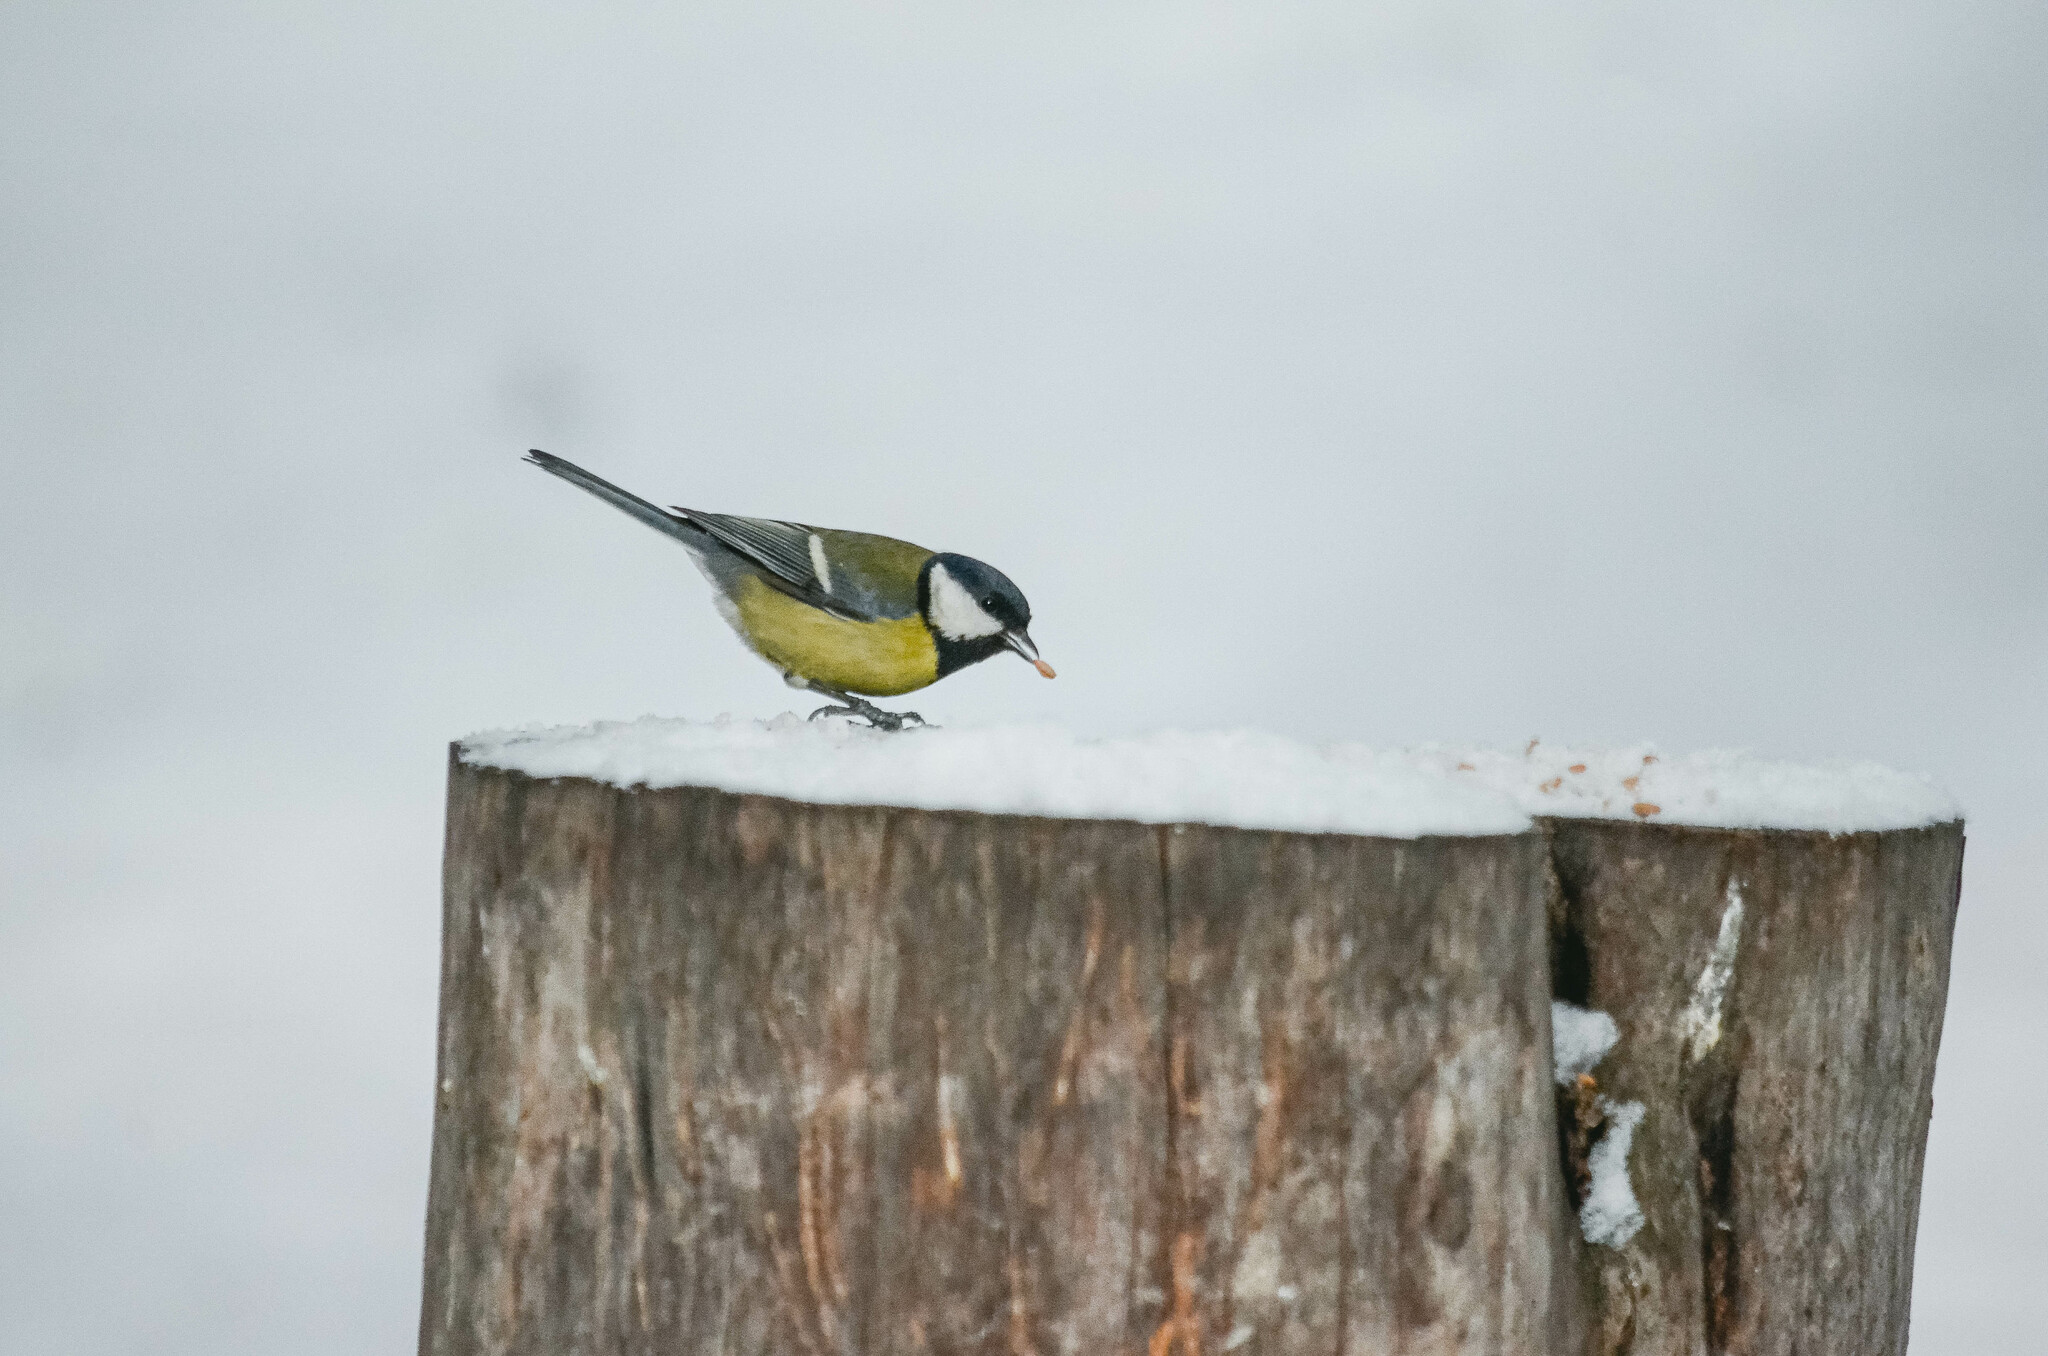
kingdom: Animalia
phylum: Chordata
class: Aves
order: Passeriformes
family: Paridae
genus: Parus
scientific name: Parus major
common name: Great tit
